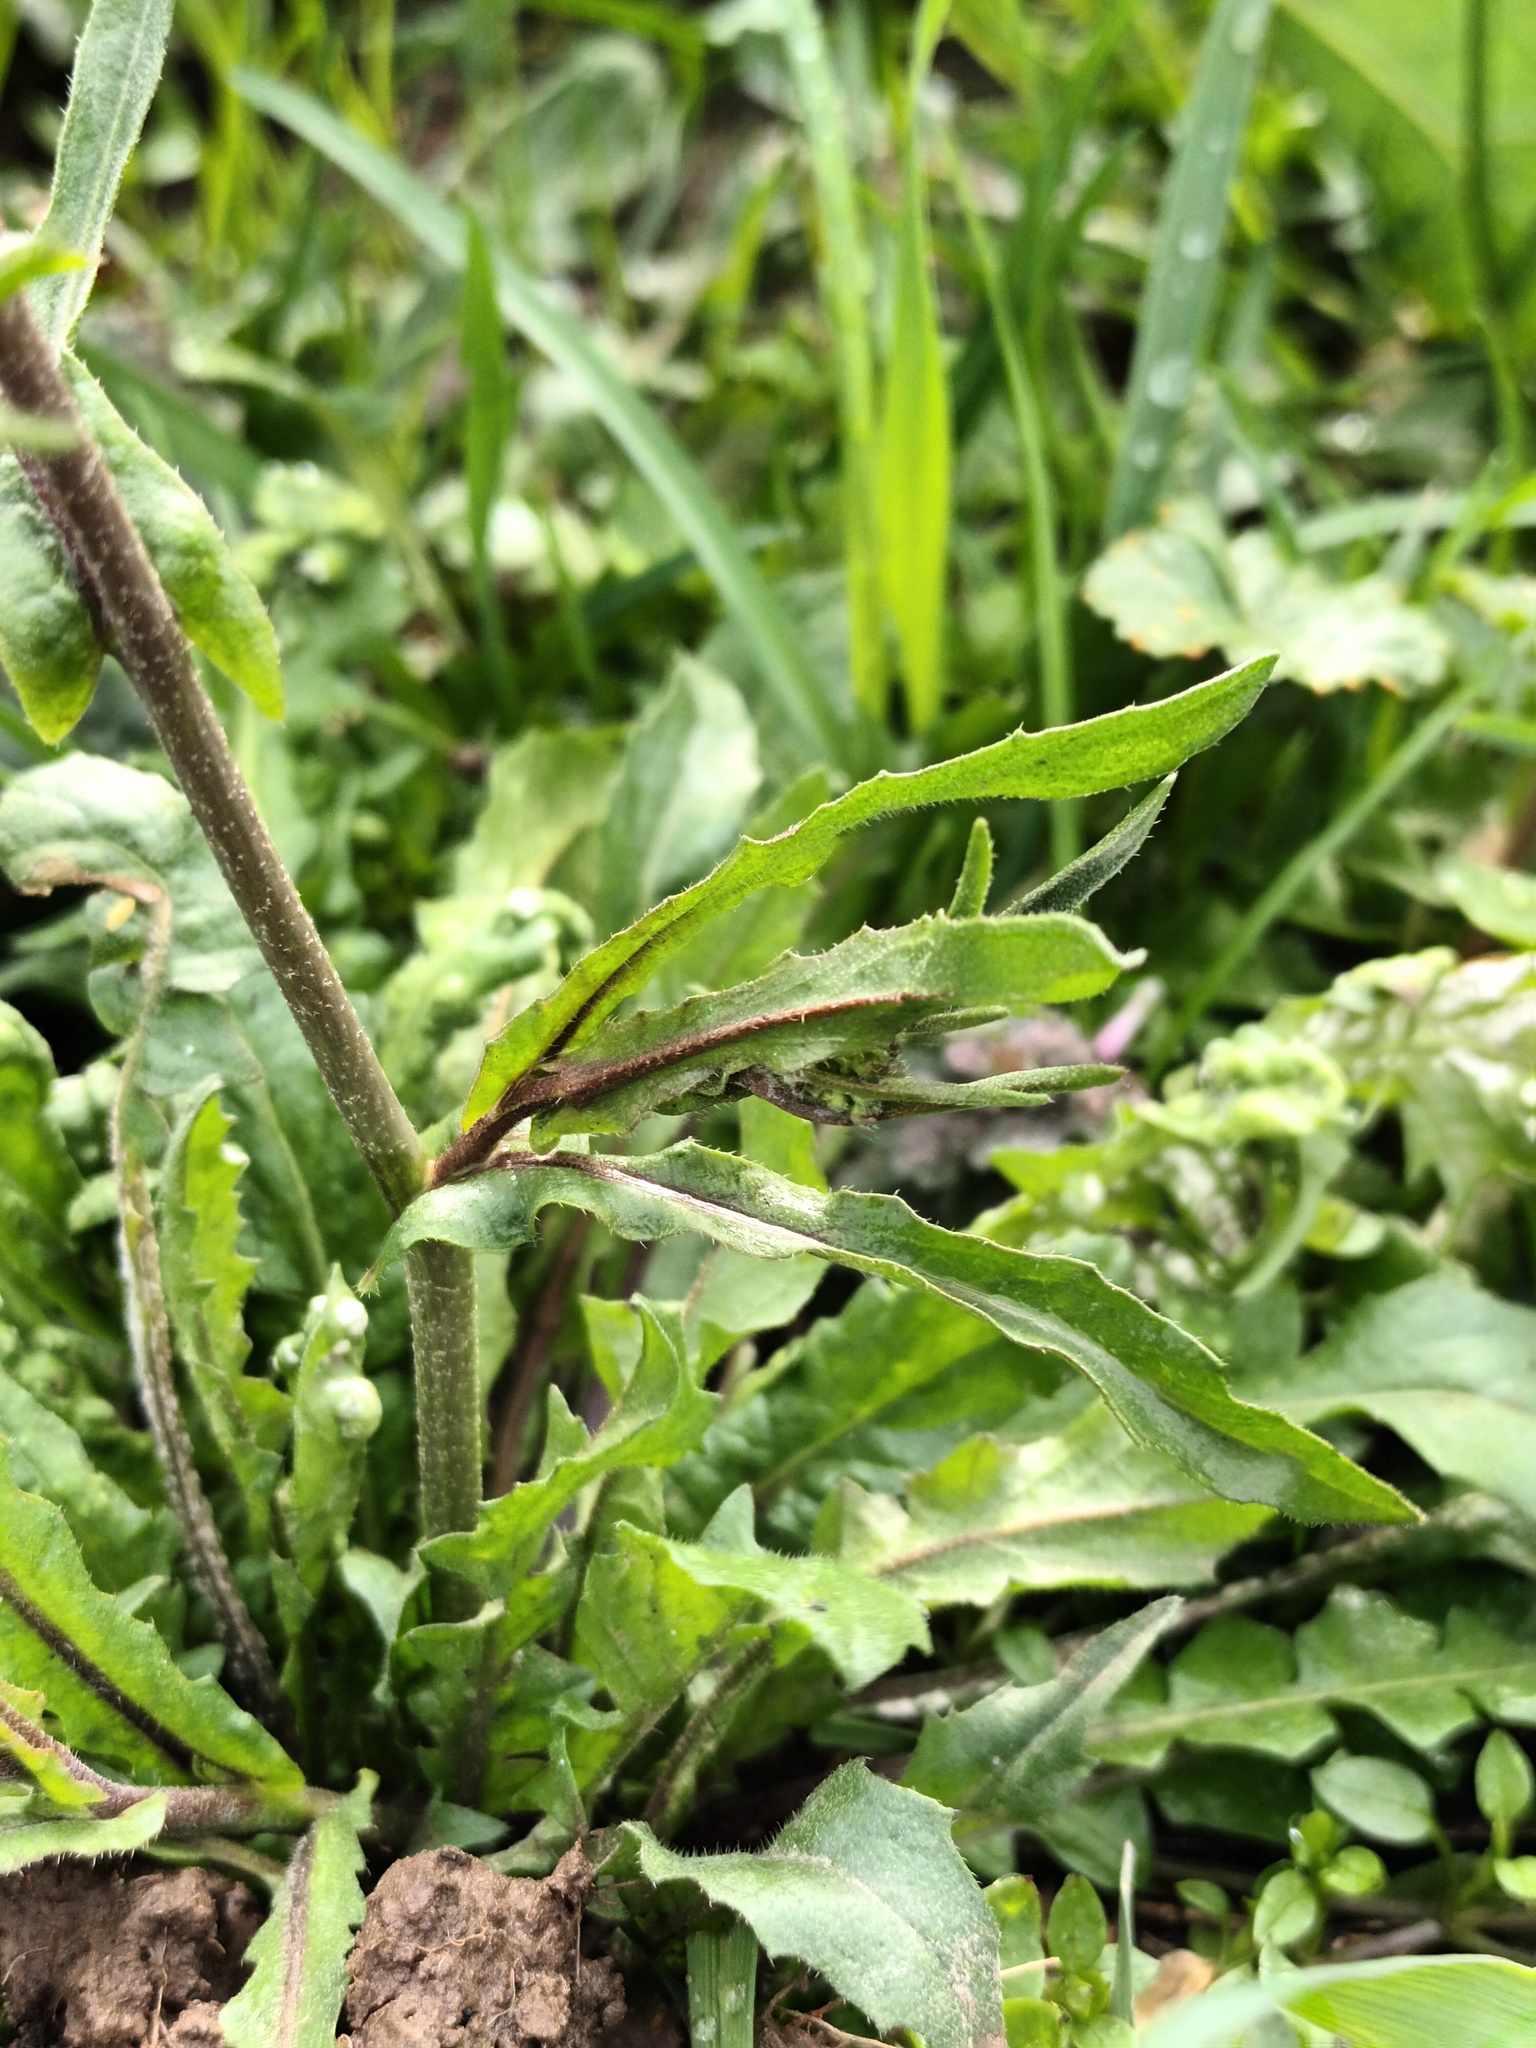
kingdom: Plantae
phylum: Tracheophyta
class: Magnoliopsida
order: Brassicales
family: Brassicaceae
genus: Capsella
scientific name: Capsella bursa-pastoris
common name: Shepherd's purse
